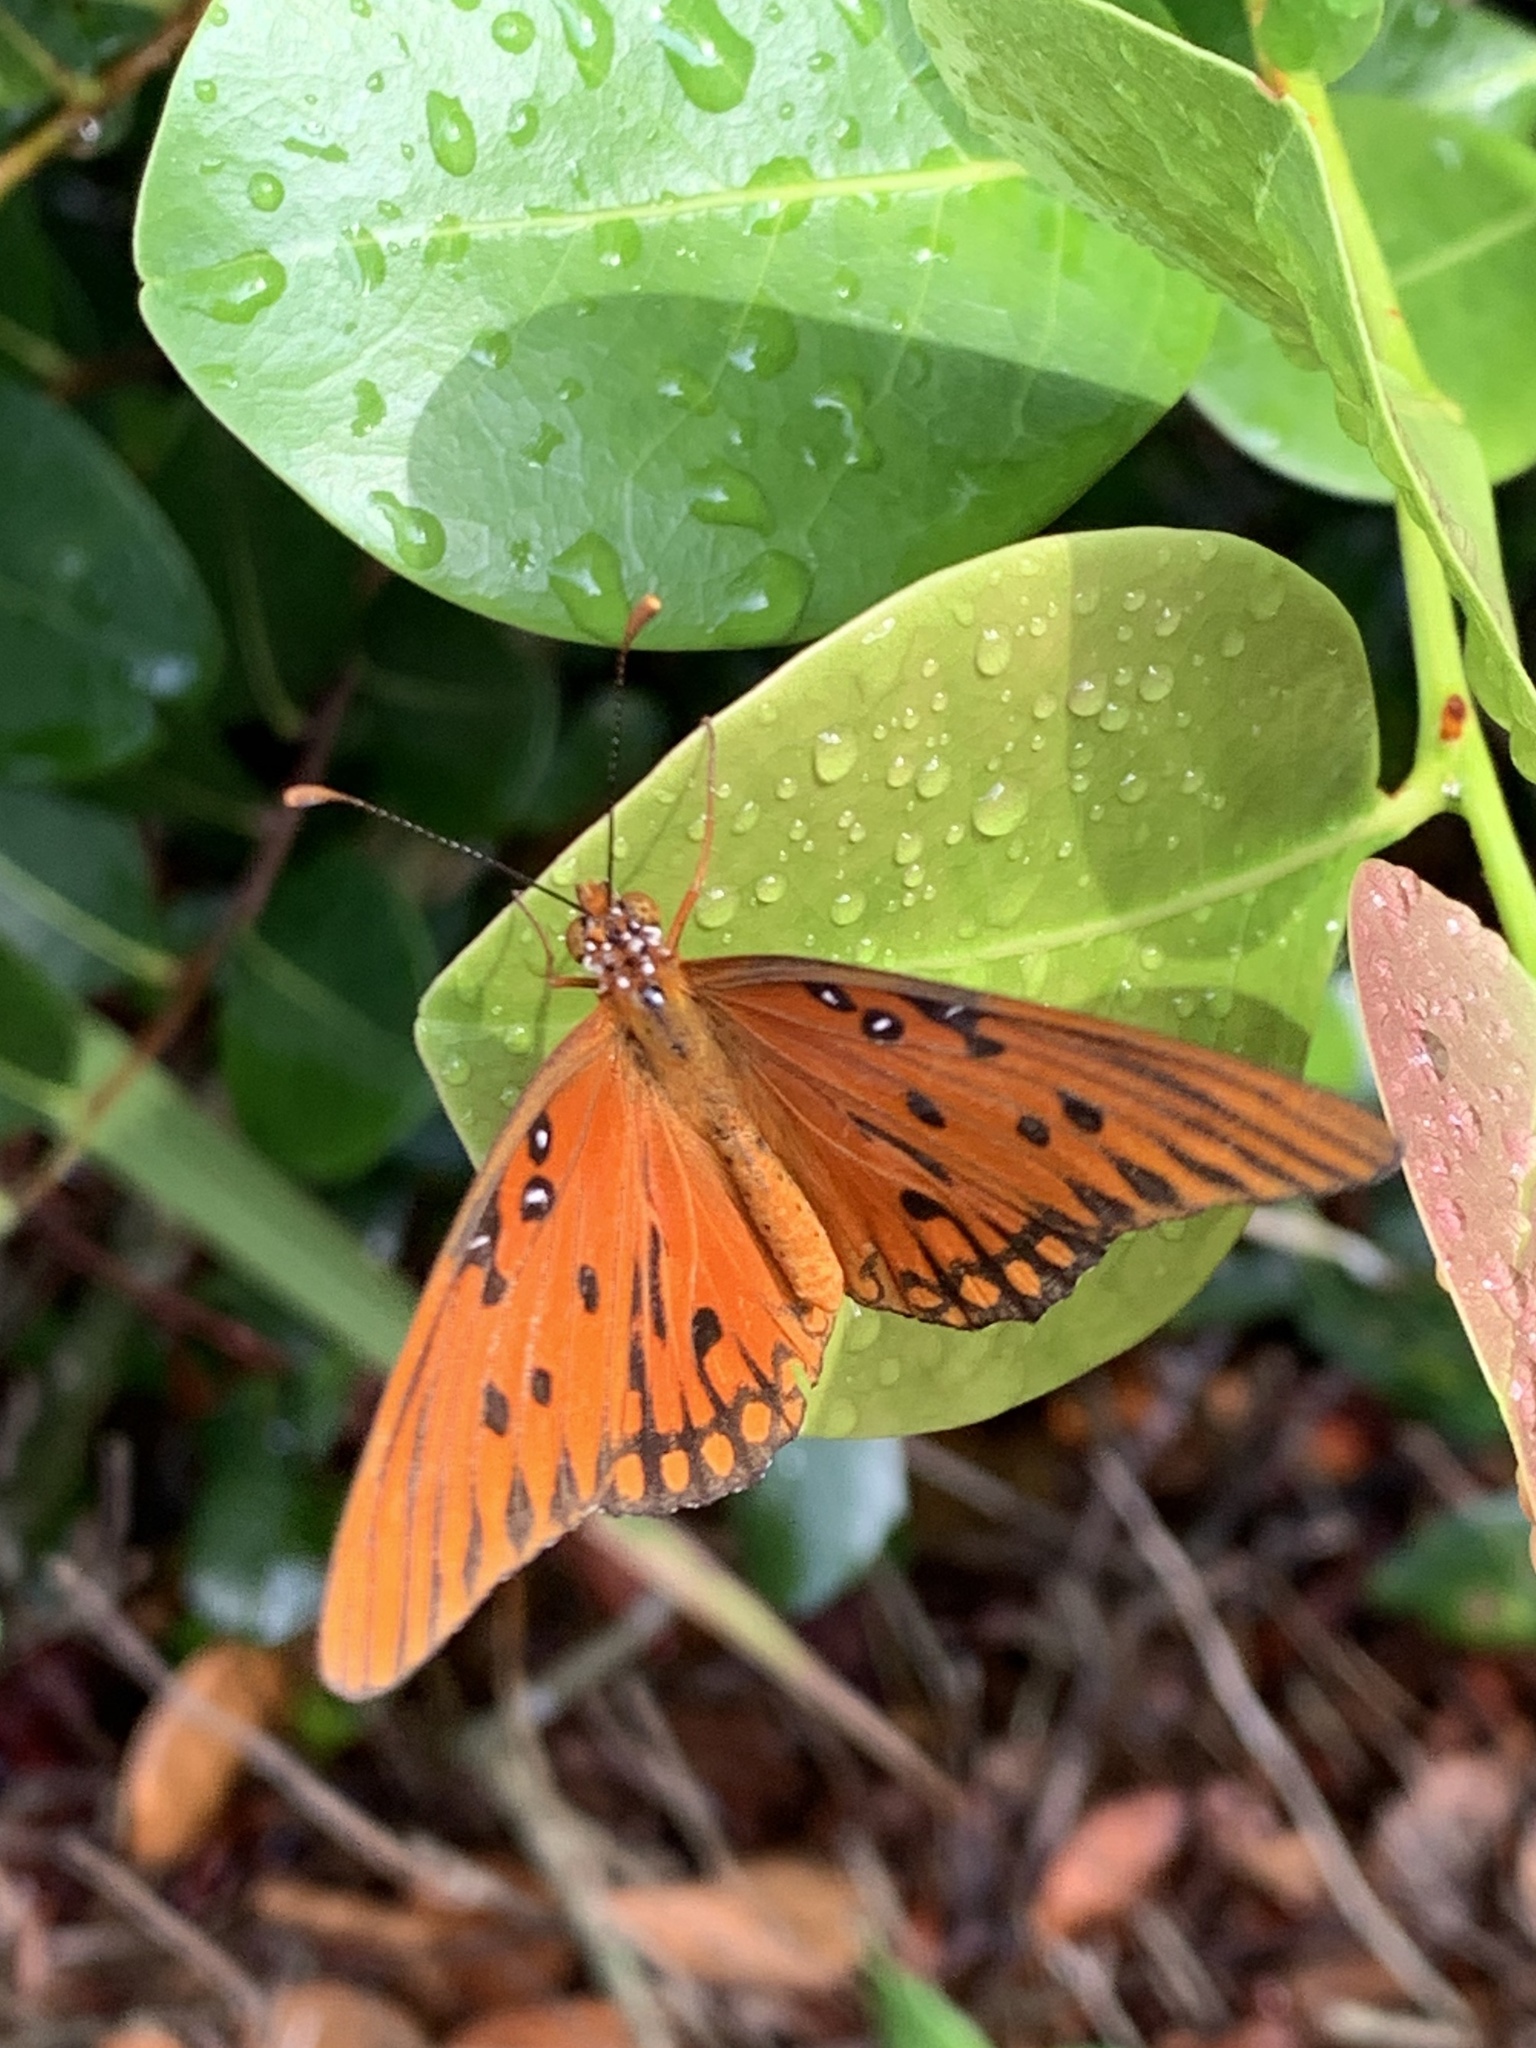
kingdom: Animalia
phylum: Arthropoda
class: Insecta
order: Lepidoptera
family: Nymphalidae
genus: Dione
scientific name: Dione vanillae
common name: Gulf fritillary
